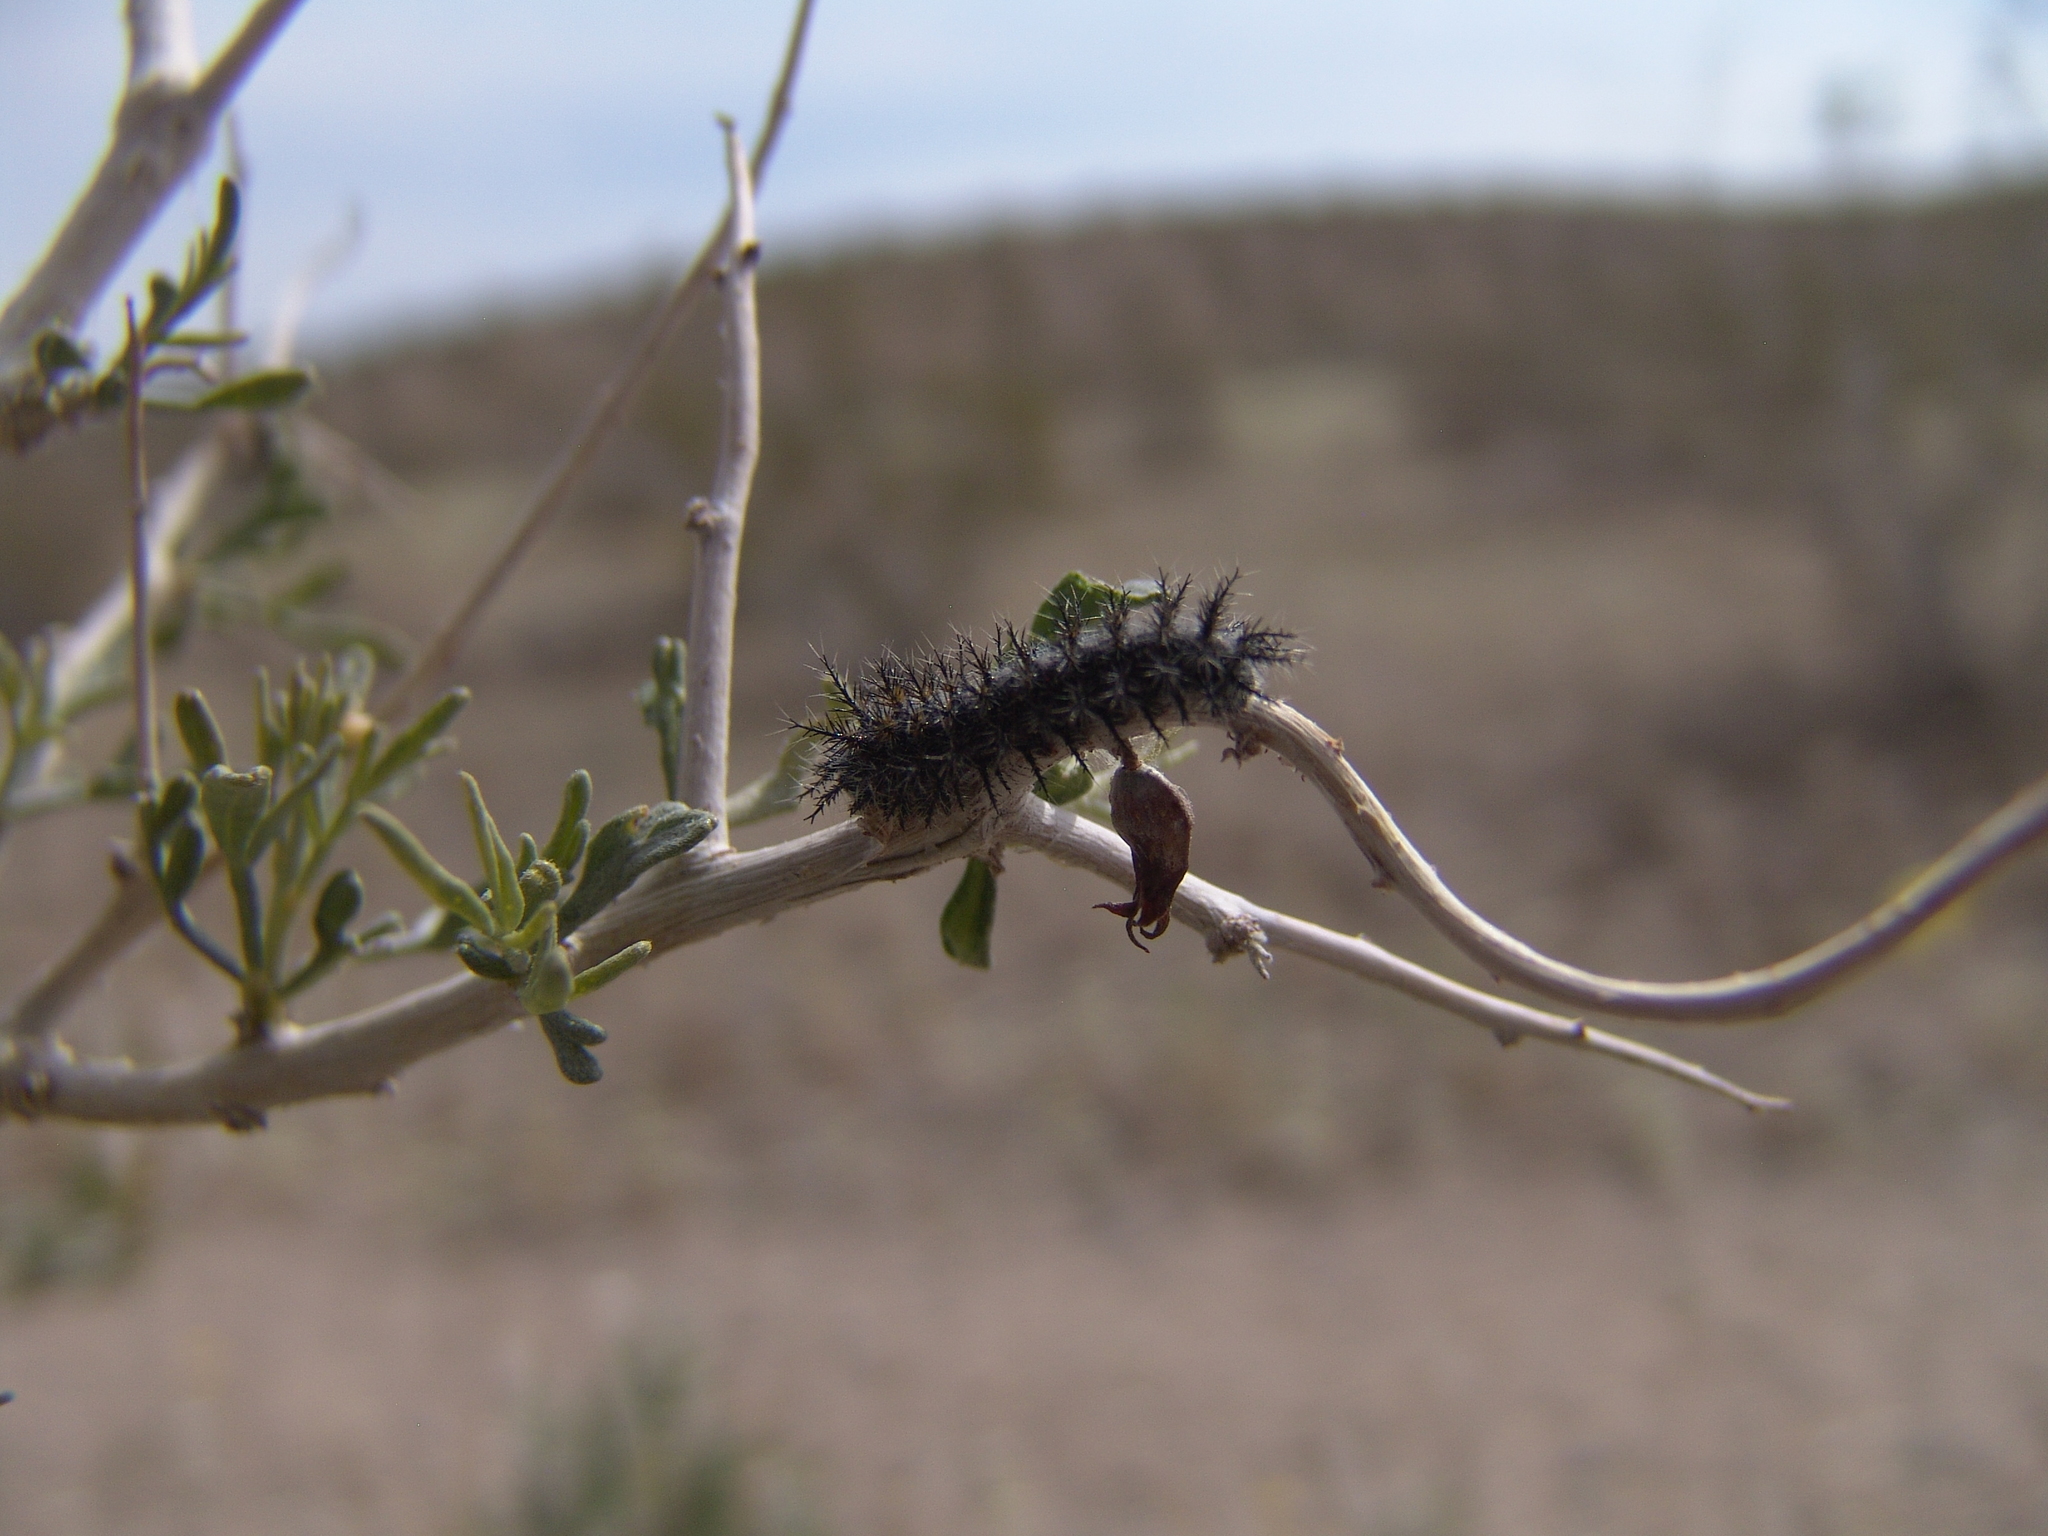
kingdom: Animalia
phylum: Arthropoda
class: Insecta
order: Lepidoptera
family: Saturniidae
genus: Hemileuca
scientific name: Hemileuca burnsi
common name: Burns' buckmoth
